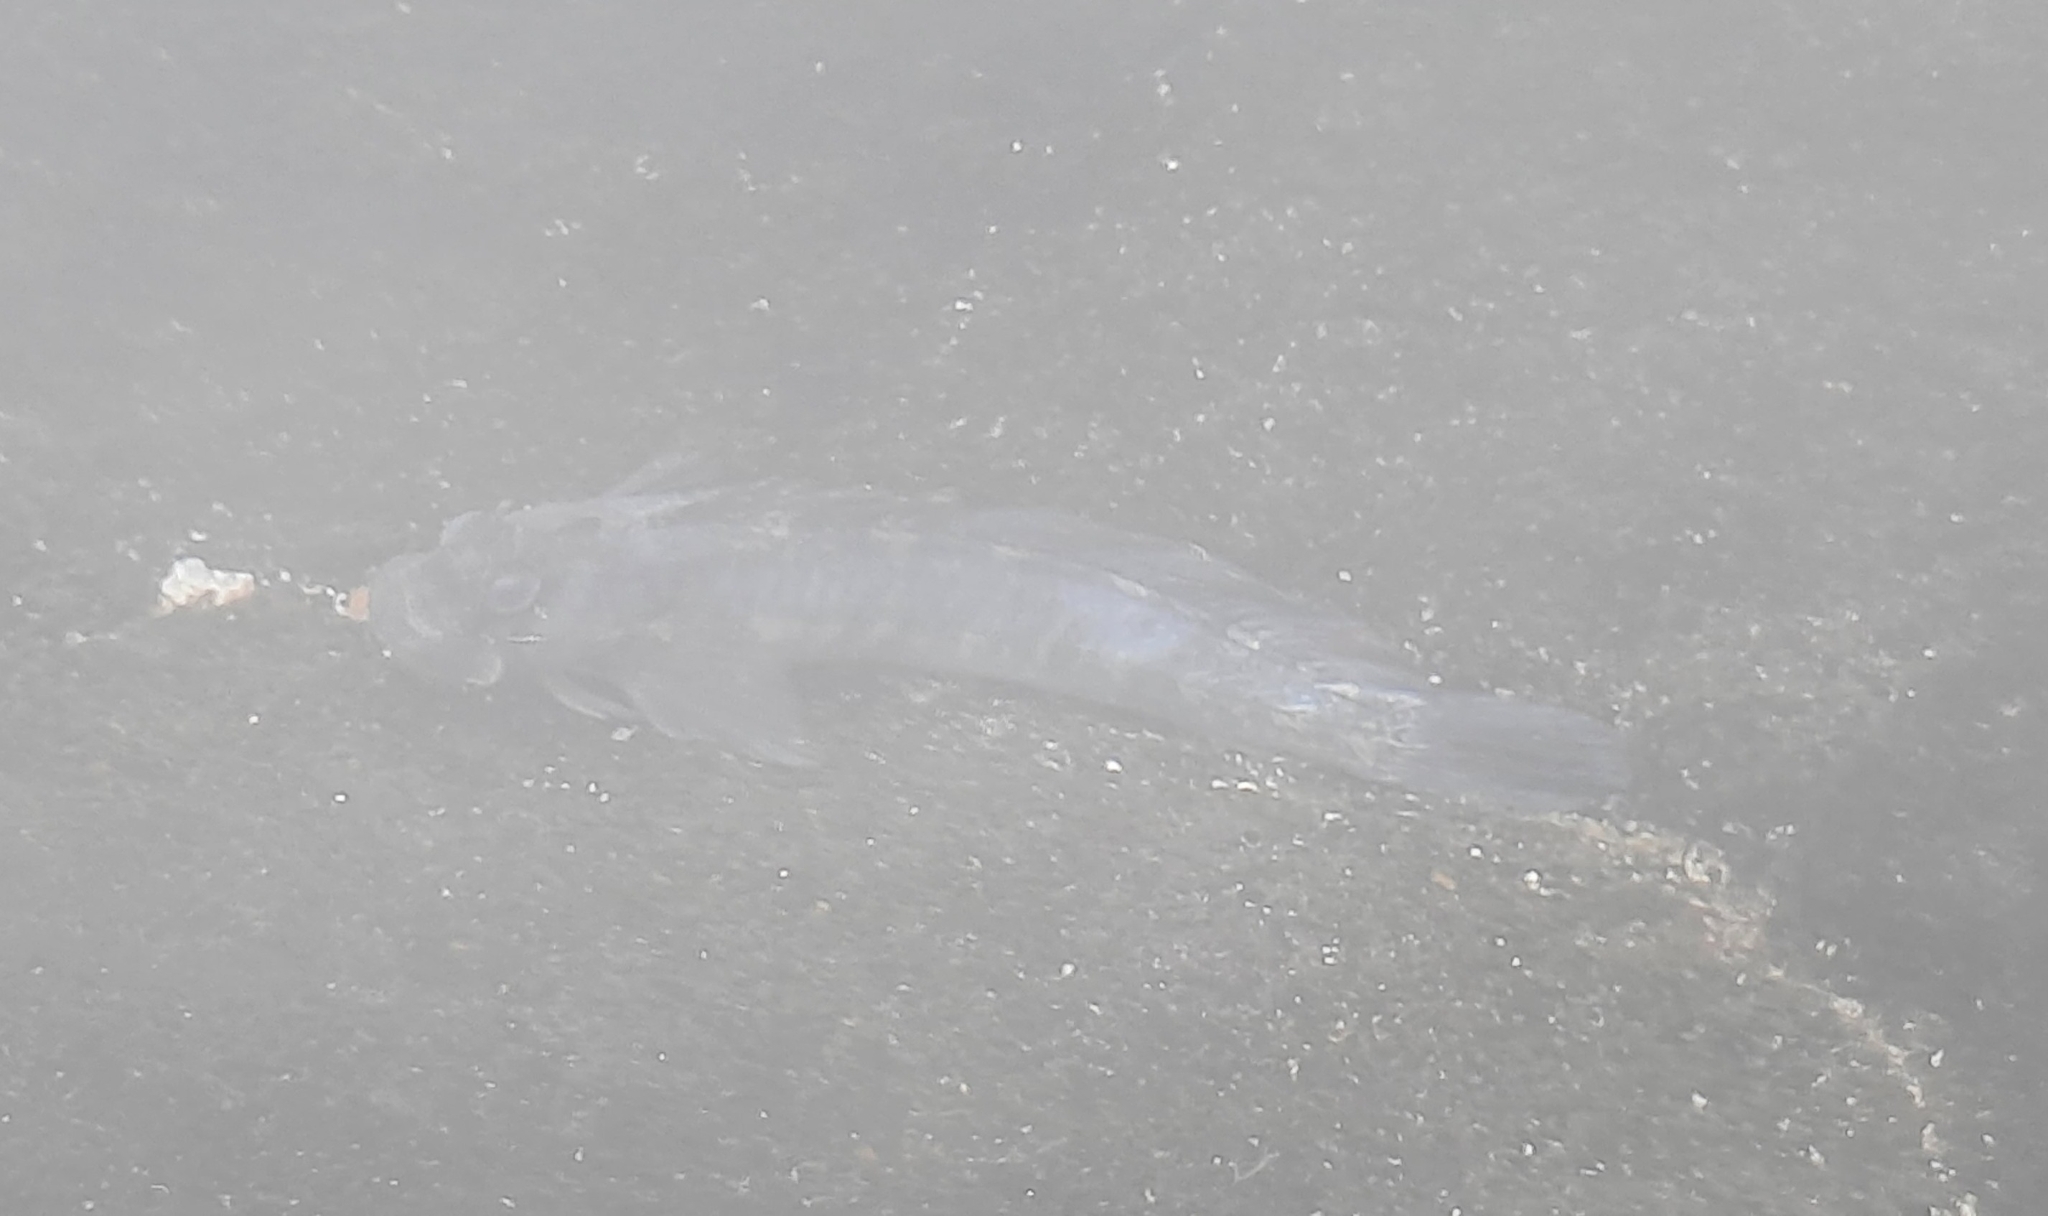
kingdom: Animalia
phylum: Chordata
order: Perciformes
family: Blenniidae
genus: Istiblennius
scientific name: Istiblennius zebra
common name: Zebra blenny
